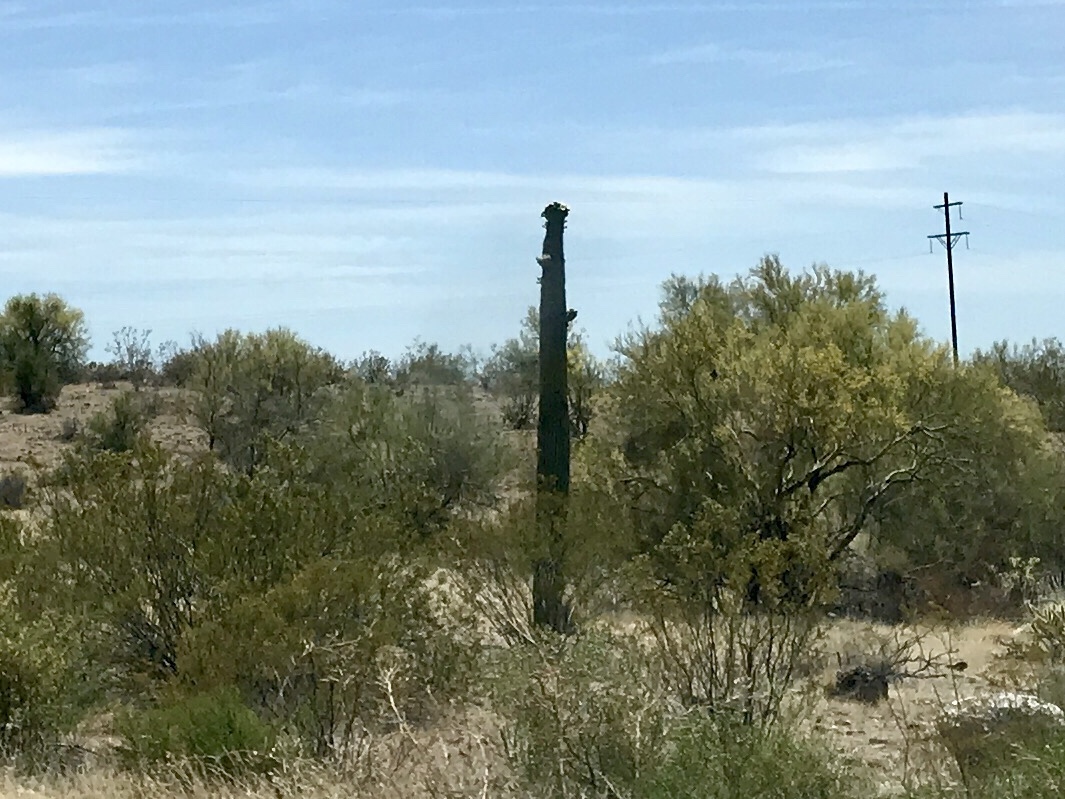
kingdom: Plantae
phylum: Tracheophyta
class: Magnoliopsida
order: Caryophyllales
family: Cactaceae
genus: Carnegiea
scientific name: Carnegiea gigantea
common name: Saguaro
